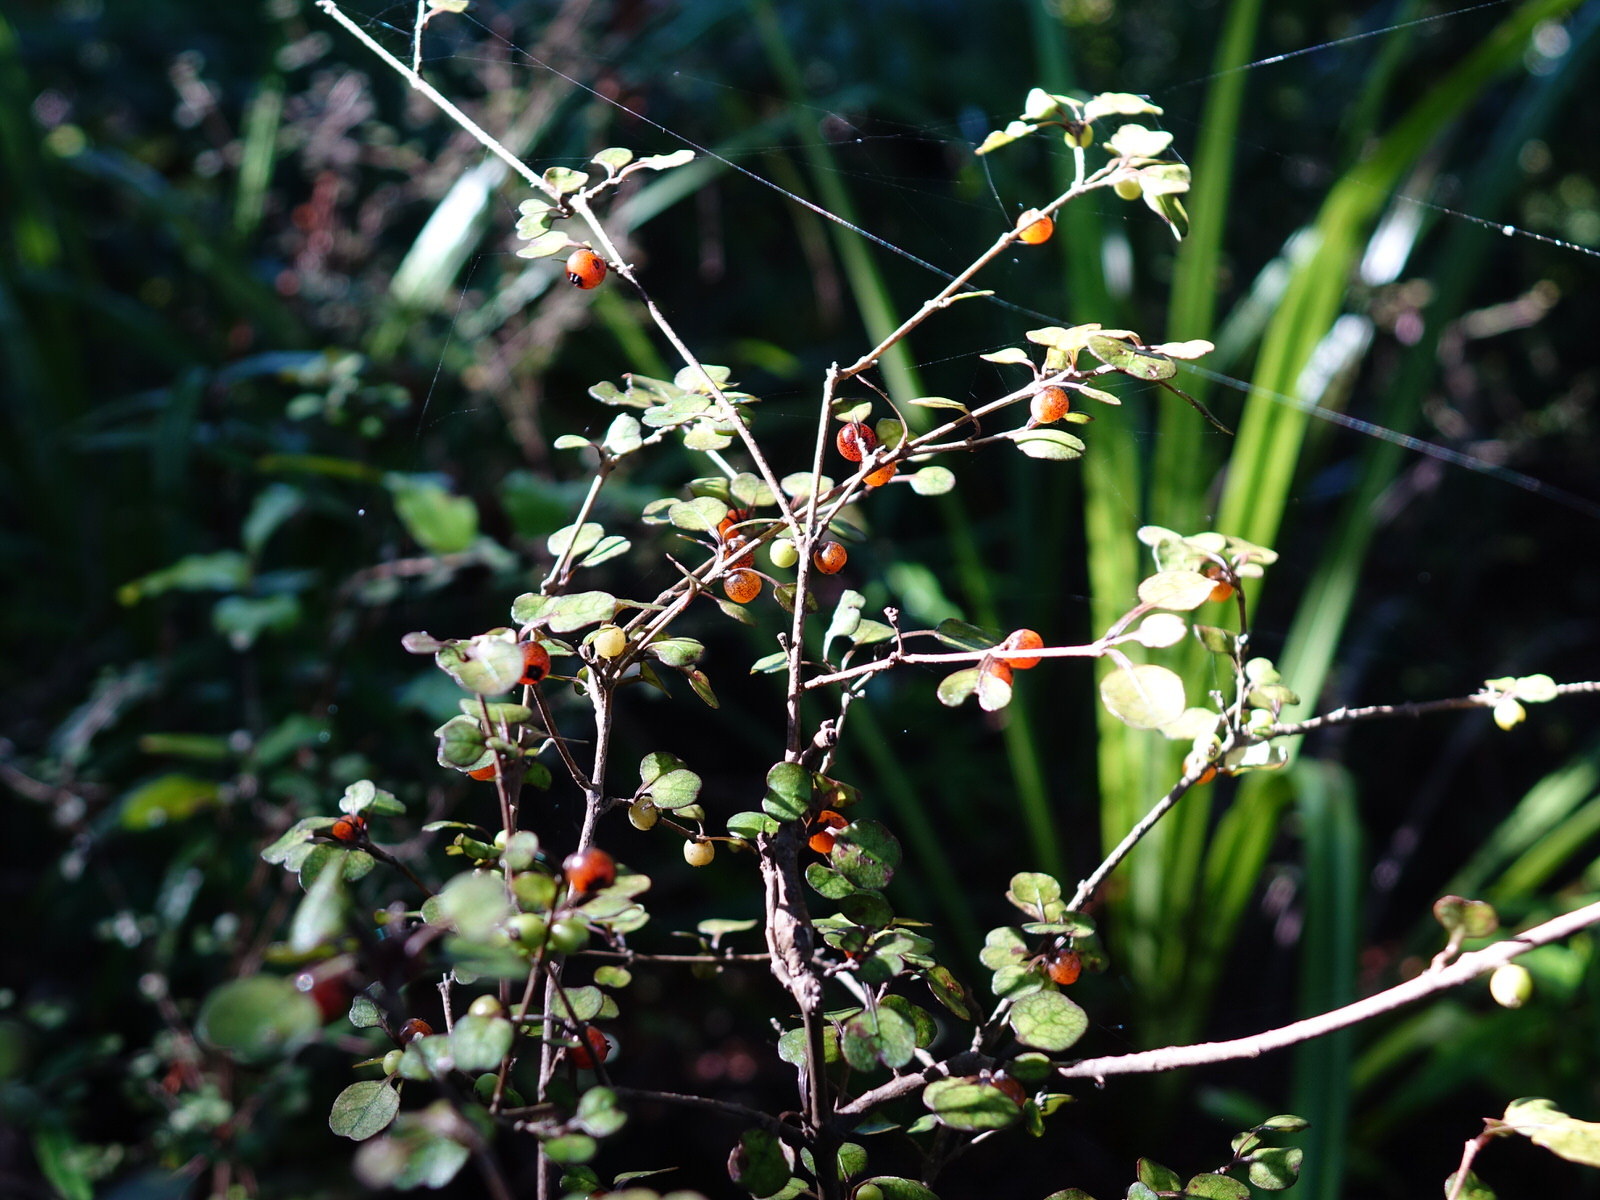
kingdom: Plantae
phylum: Tracheophyta
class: Magnoliopsida
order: Gentianales
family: Rubiaceae
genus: Coprosma
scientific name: Coprosma spathulata
